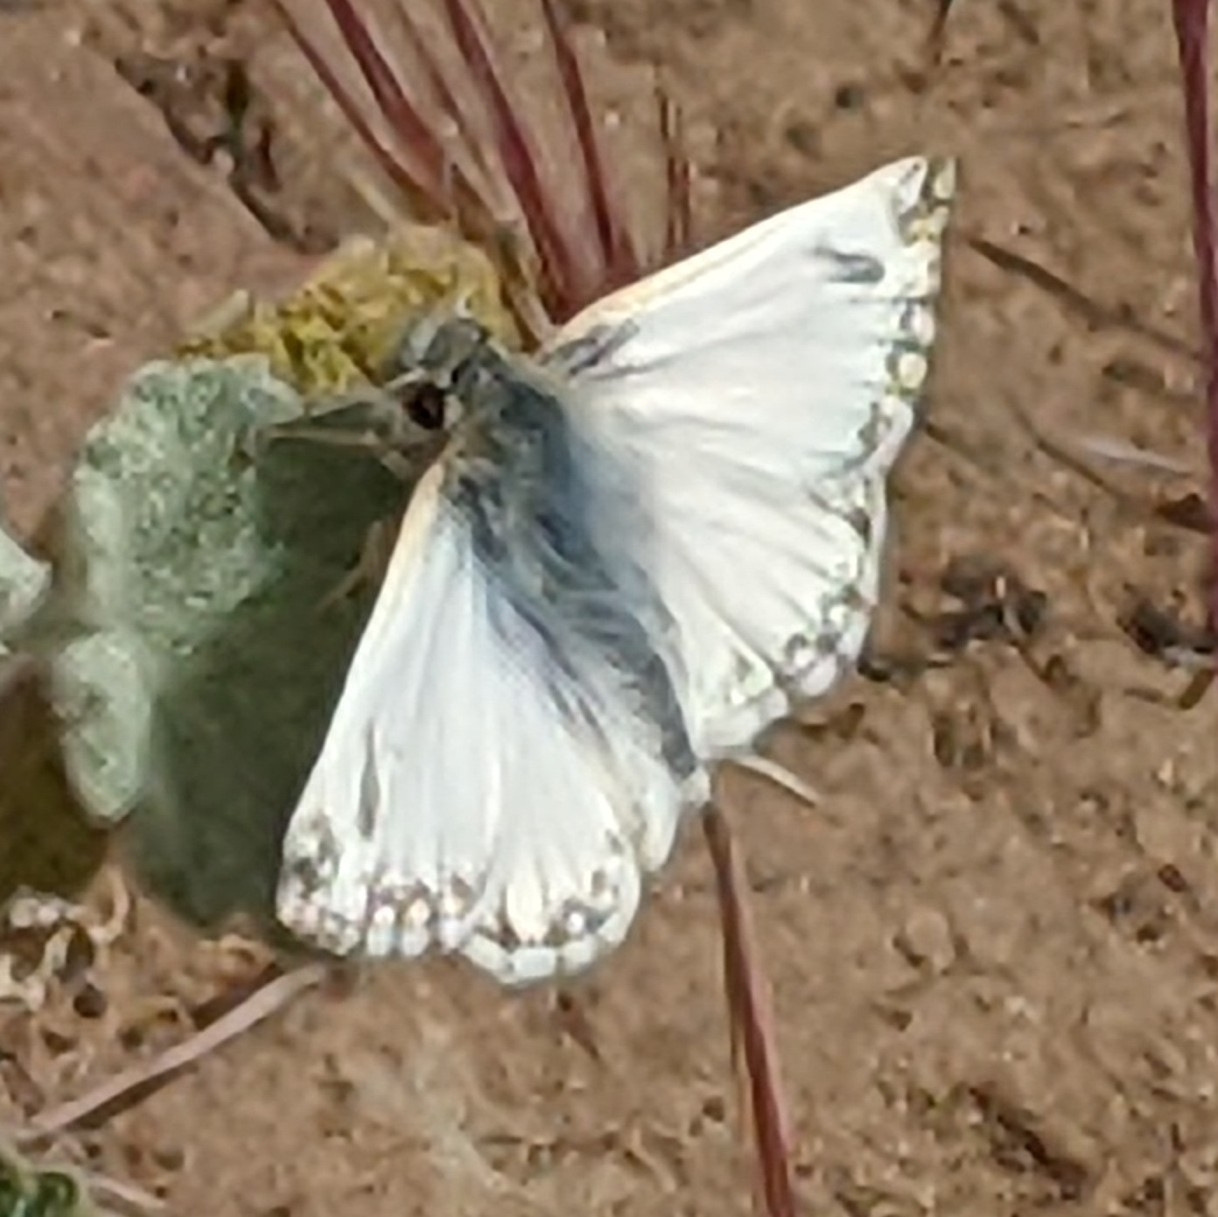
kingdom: Animalia
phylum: Arthropoda
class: Insecta
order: Lepidoptera
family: Hesperiidae
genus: Heliopetes
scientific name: Heliopetes ericetorum
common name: Northern white-skipper
